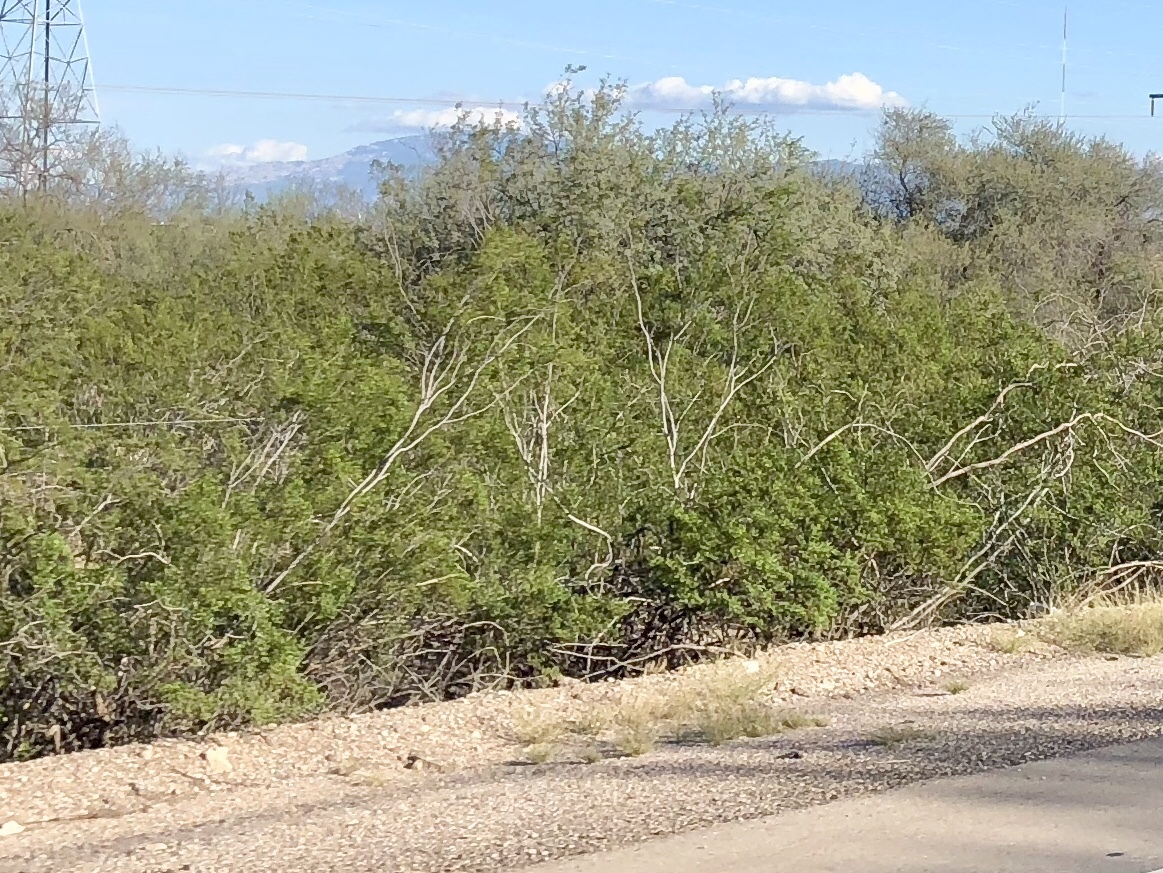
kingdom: Plantae
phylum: Tracheophyta
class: Magnoliopsida
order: Zygophyllales
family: Zygophyllaceae
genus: Larrea
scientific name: Larrea tridentata
